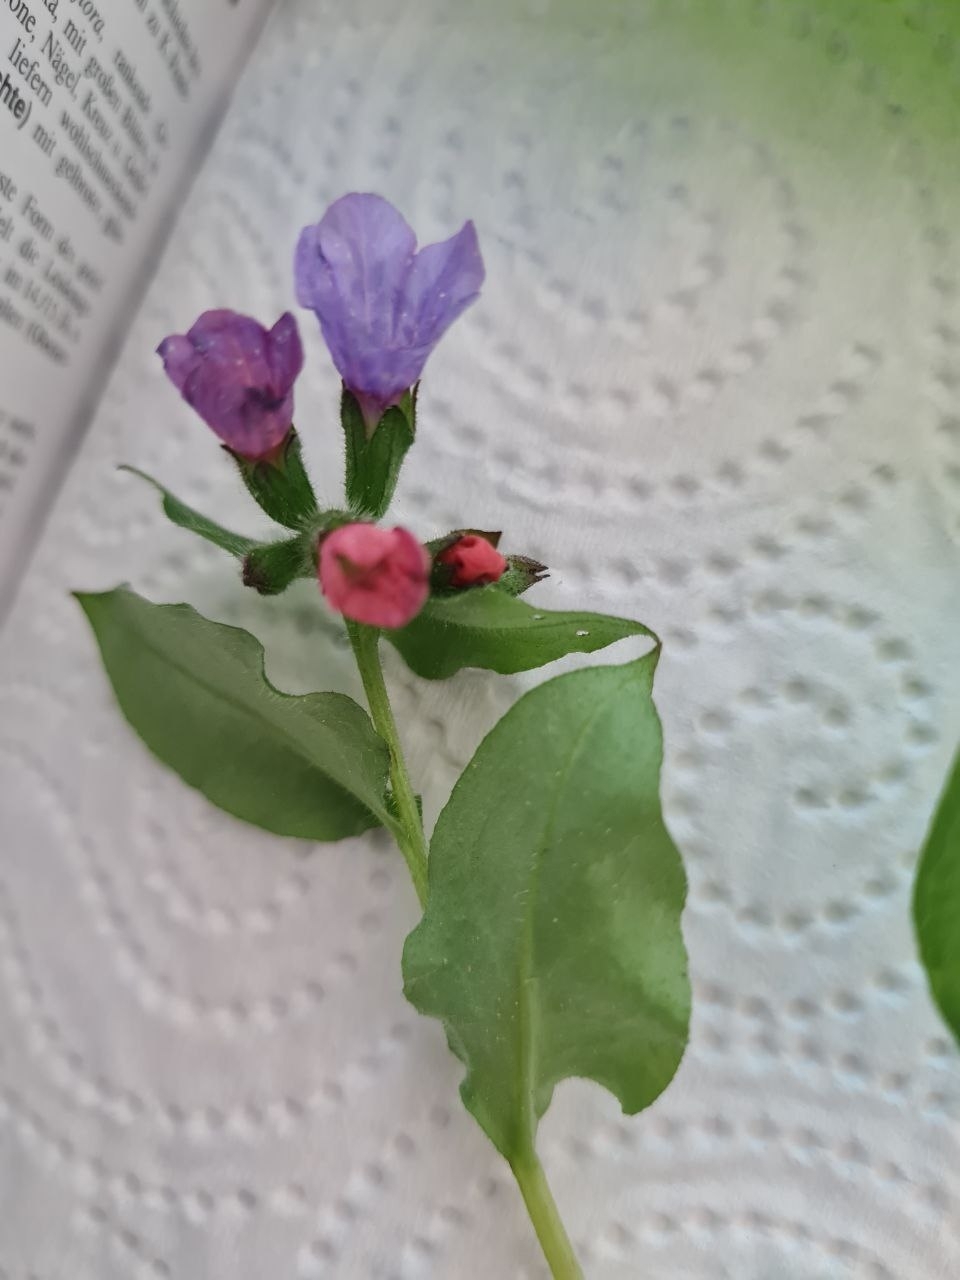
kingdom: Plantae
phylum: Tracheophyta
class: Magnoliopsida
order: Boraginales
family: Boraginaceae
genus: Pulmonaria
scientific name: Pulmonaria obscura
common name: Suffolk lungwort
